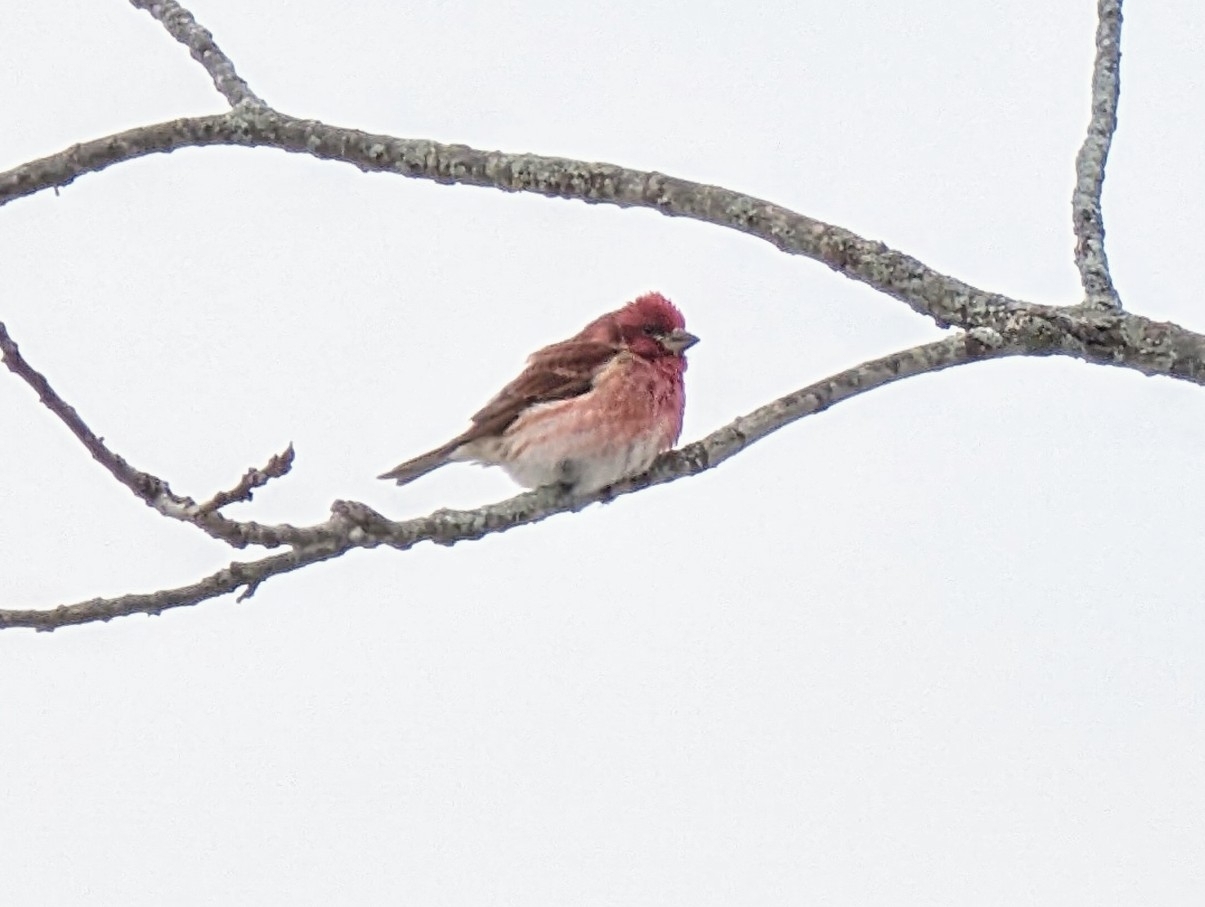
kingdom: Animalia
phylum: Chordata
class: Aves
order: Passeriformes
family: Fringillidae
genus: Haemorhous
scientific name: Haemorhous purpureus
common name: Purple finch
